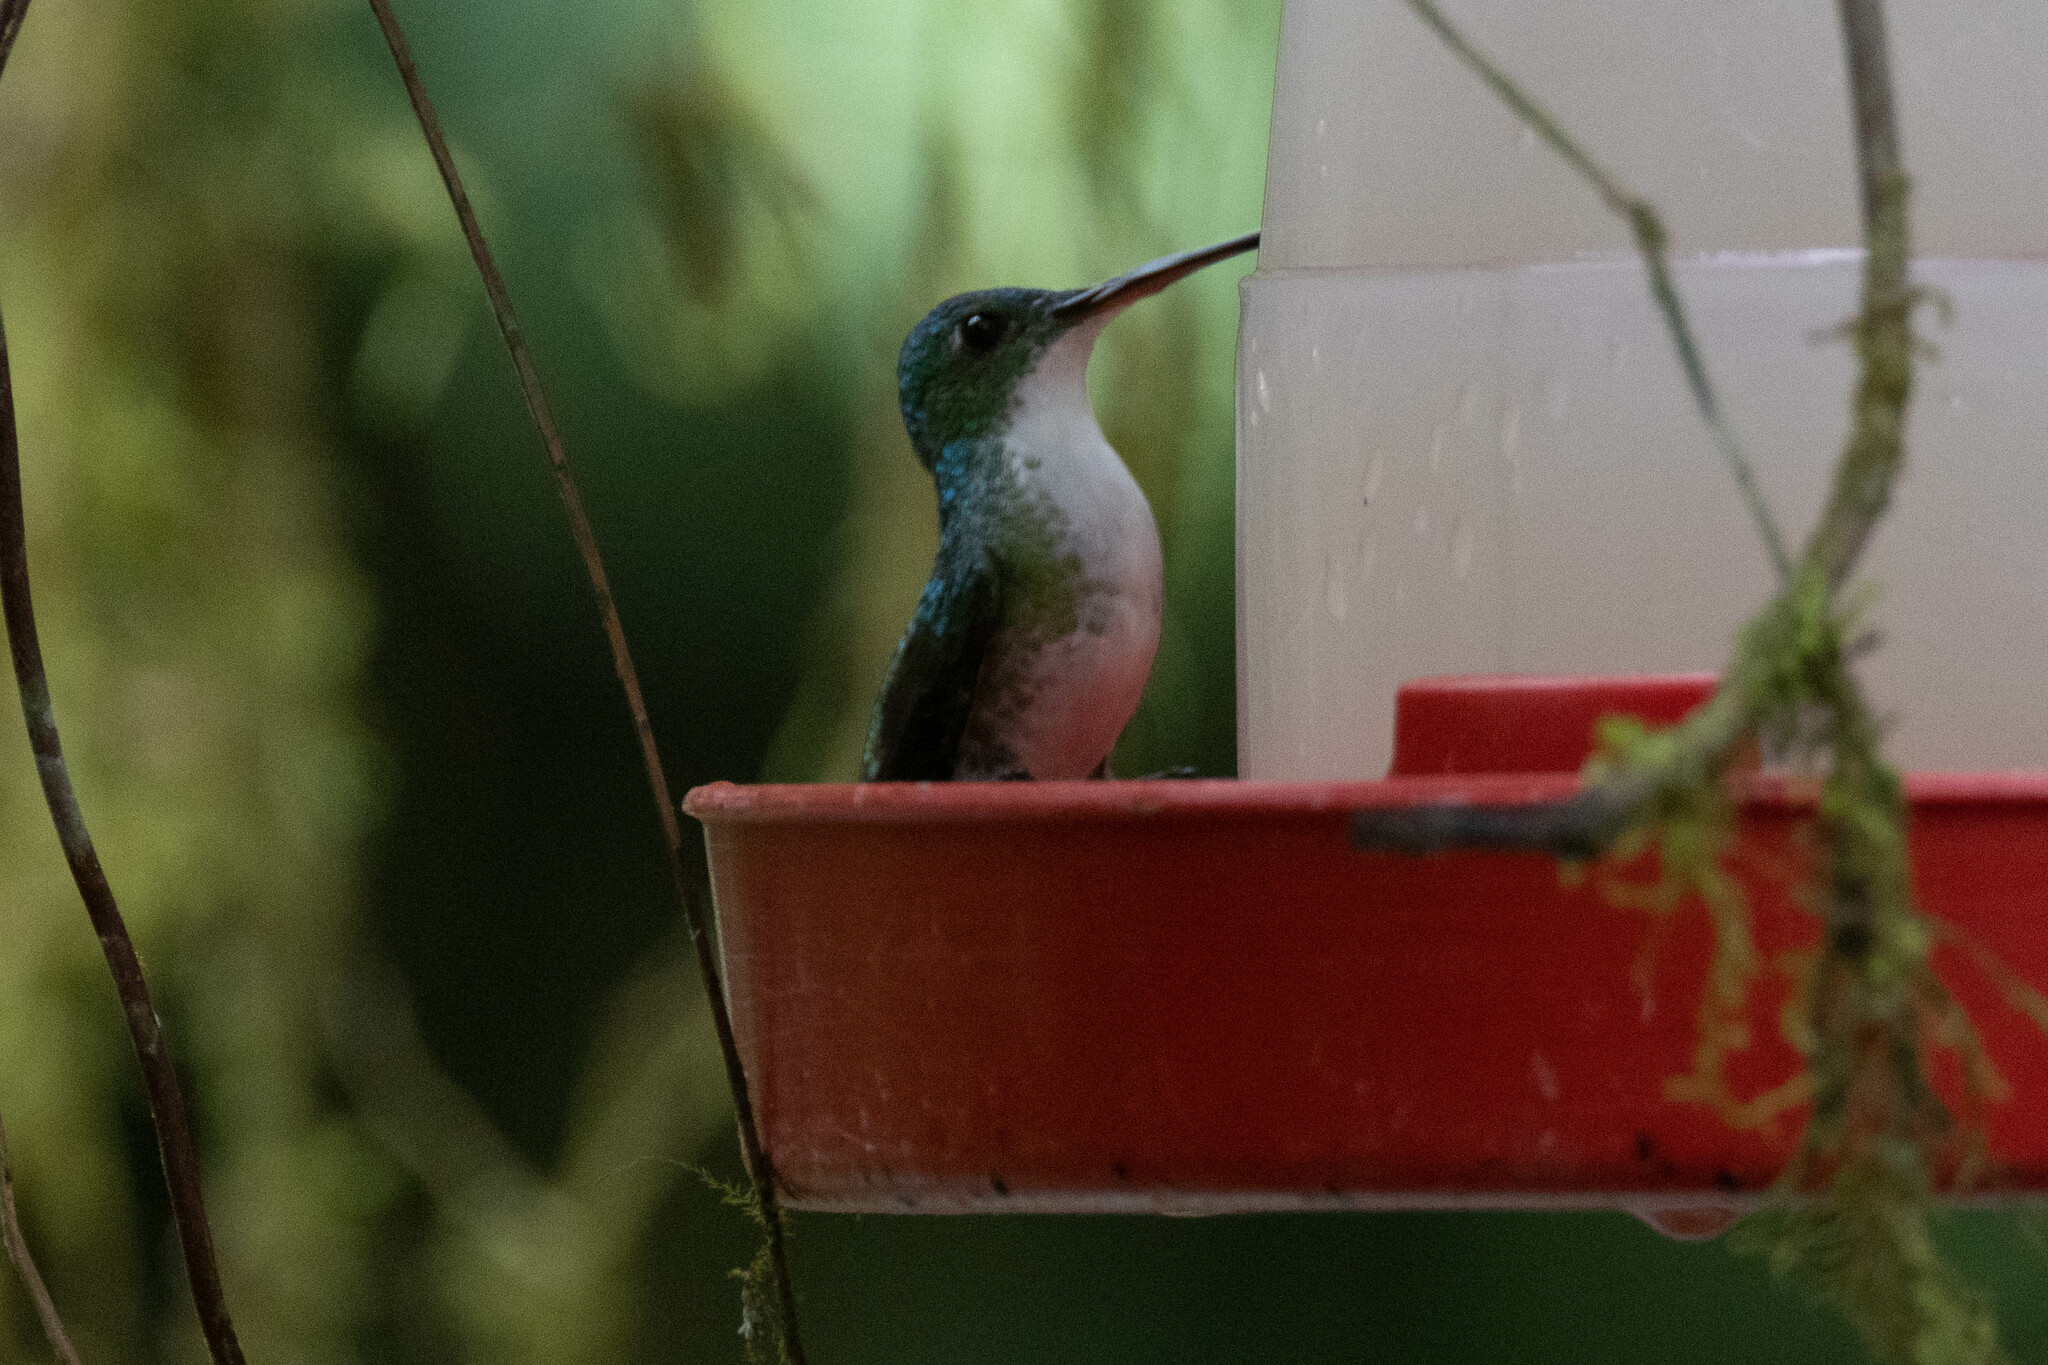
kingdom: Animalia
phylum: Chordata
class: Aves
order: Apodiformes
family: Trochilidae
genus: Uranomitra
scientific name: Uranomitra franciae
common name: Andean emerald
